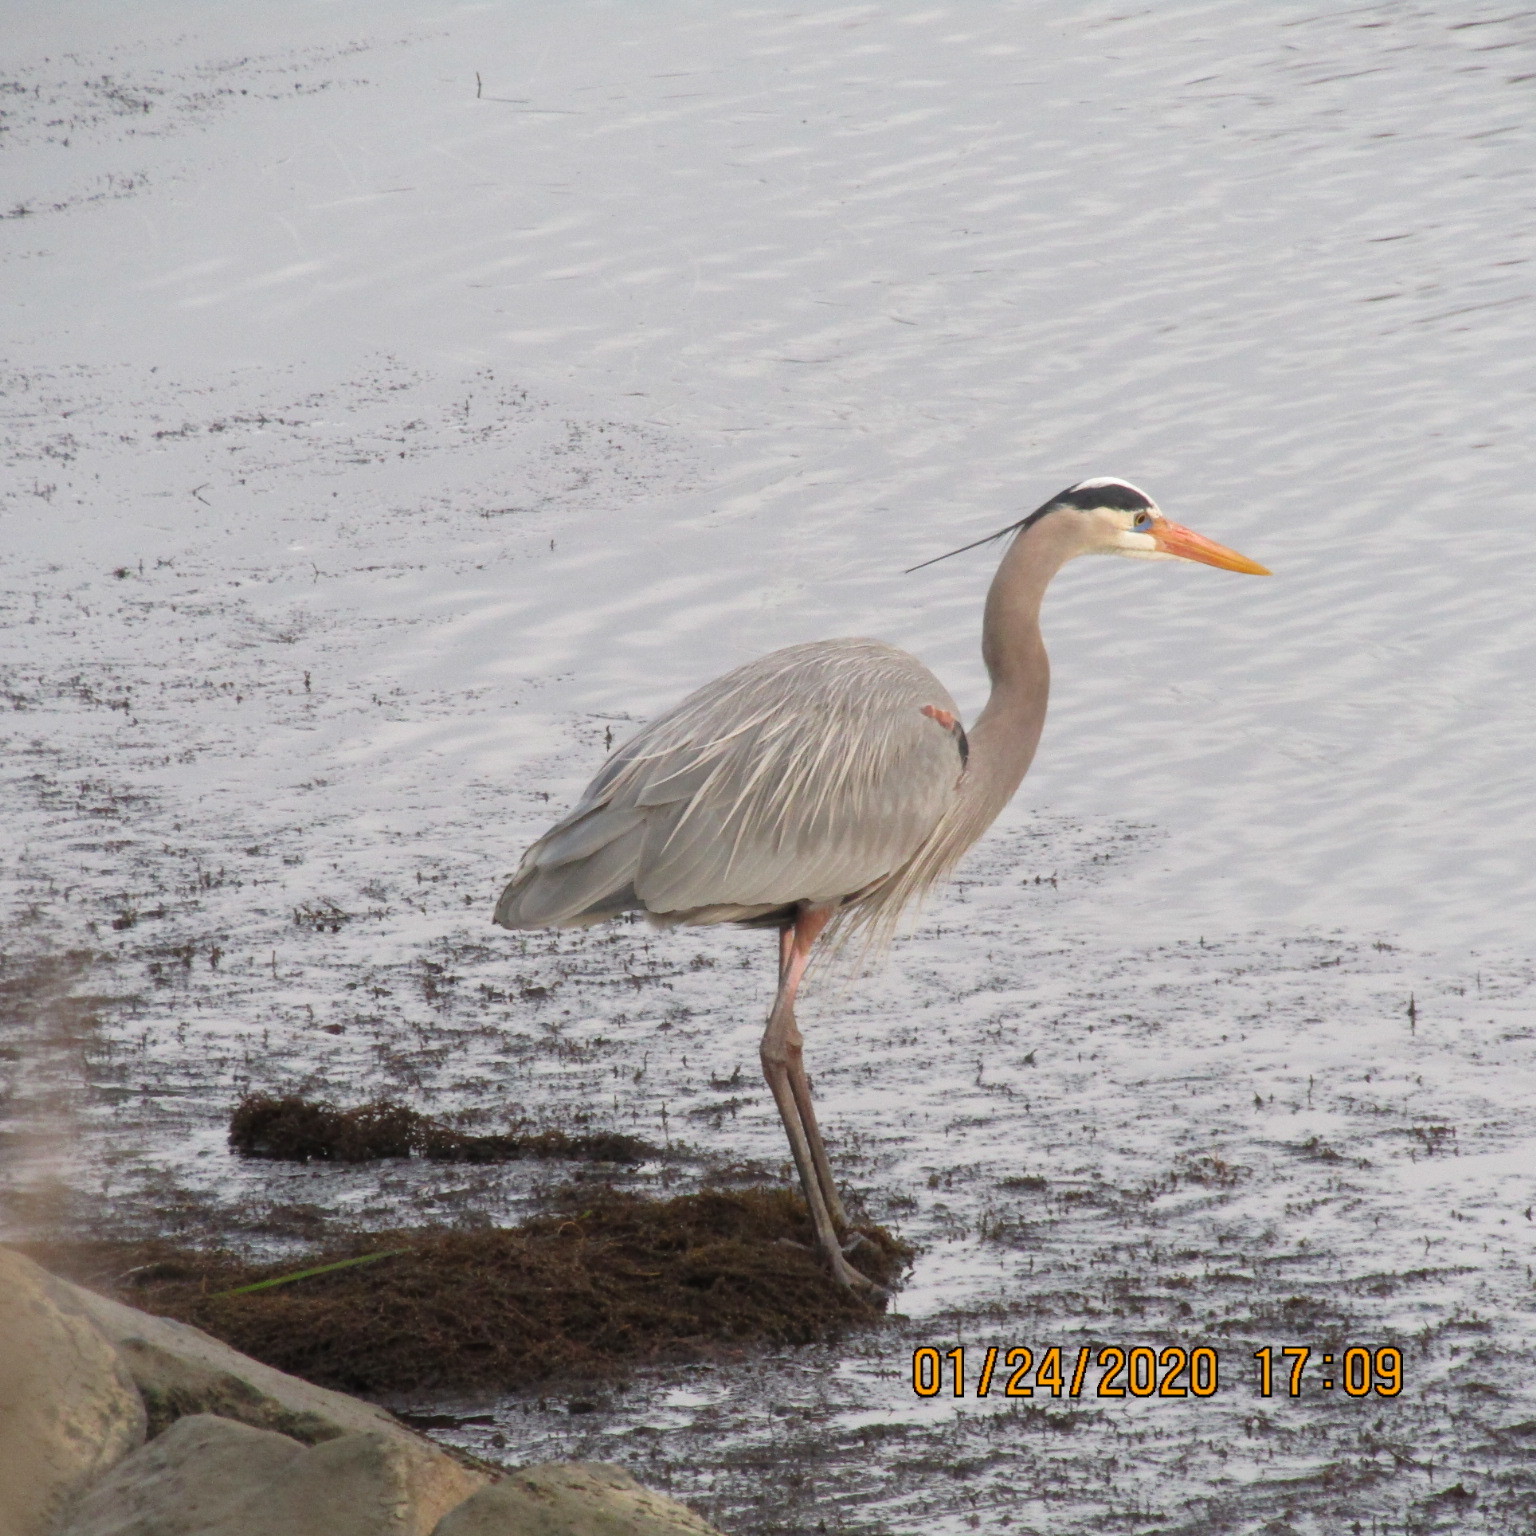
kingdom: Animalia
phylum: Chordata
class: Aves
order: Pelecaniformes
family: Ardeidae
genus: Ardea
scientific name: Ardea herodias
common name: Great blue heron
